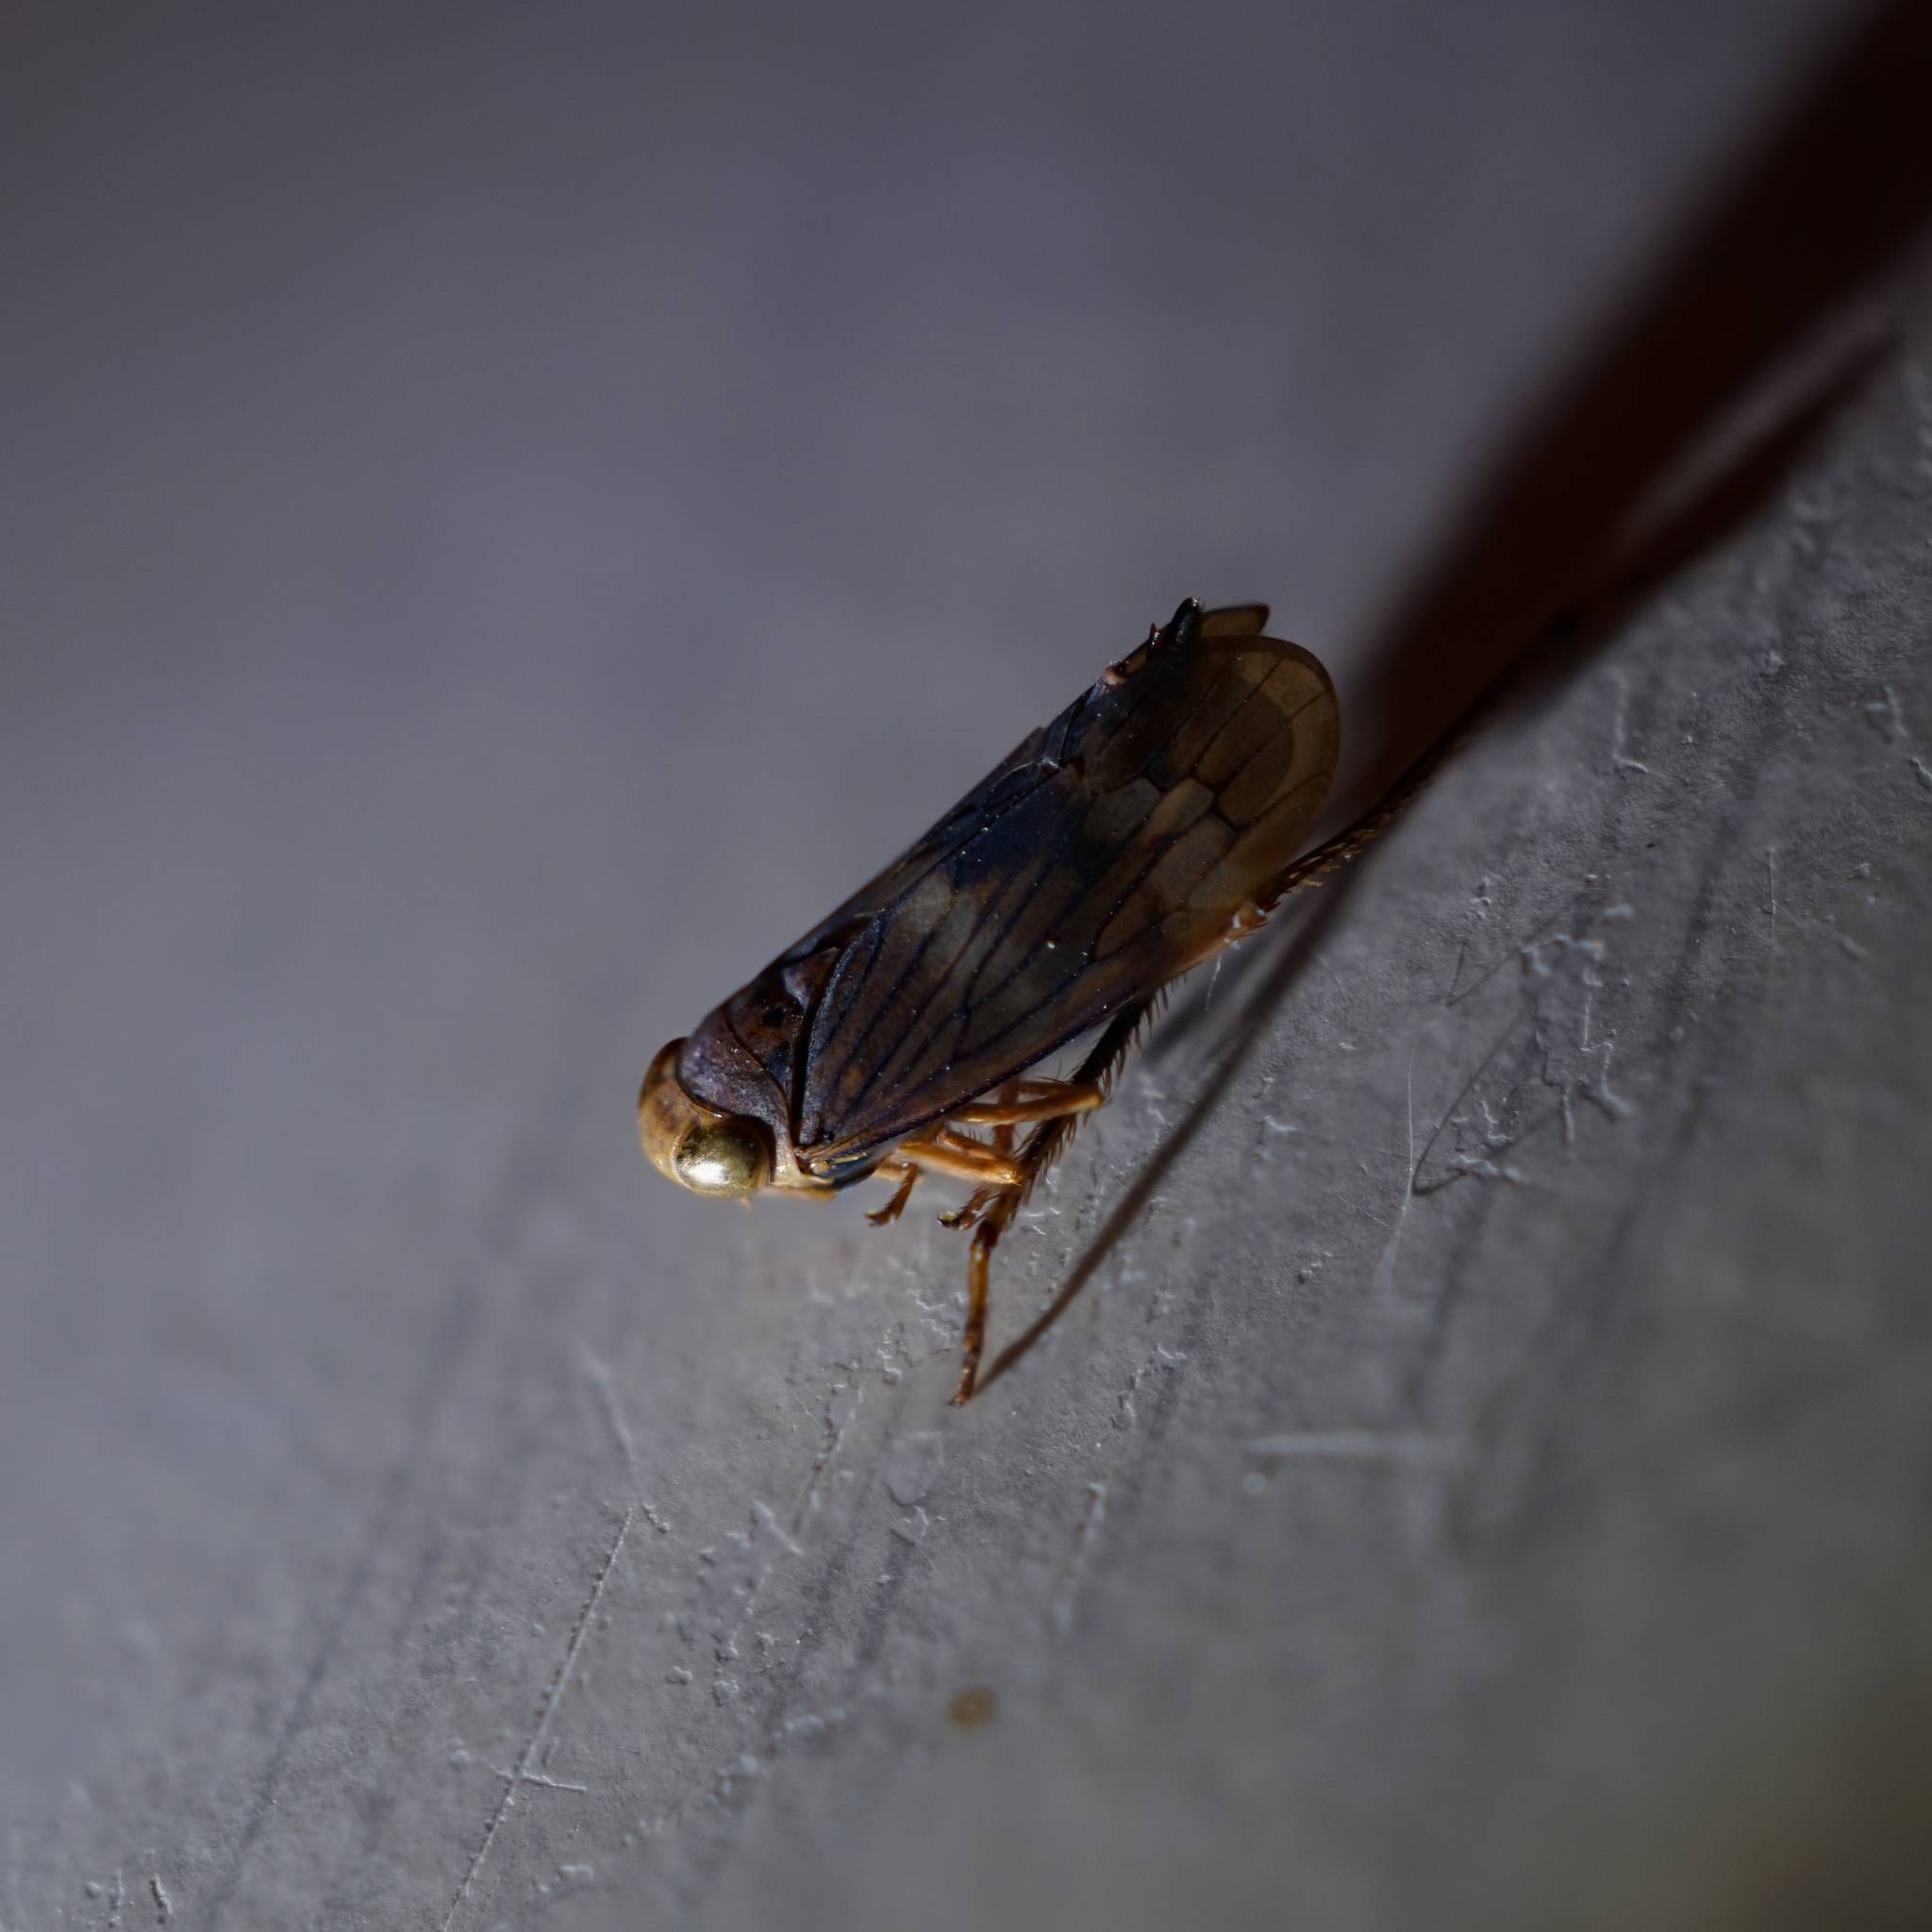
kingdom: Animalia
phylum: Arthropoda
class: Insecta
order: Hemiptera
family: Cicadellidae
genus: Jikradia
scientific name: Jikradia olitoria
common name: Coppery leafhopper
